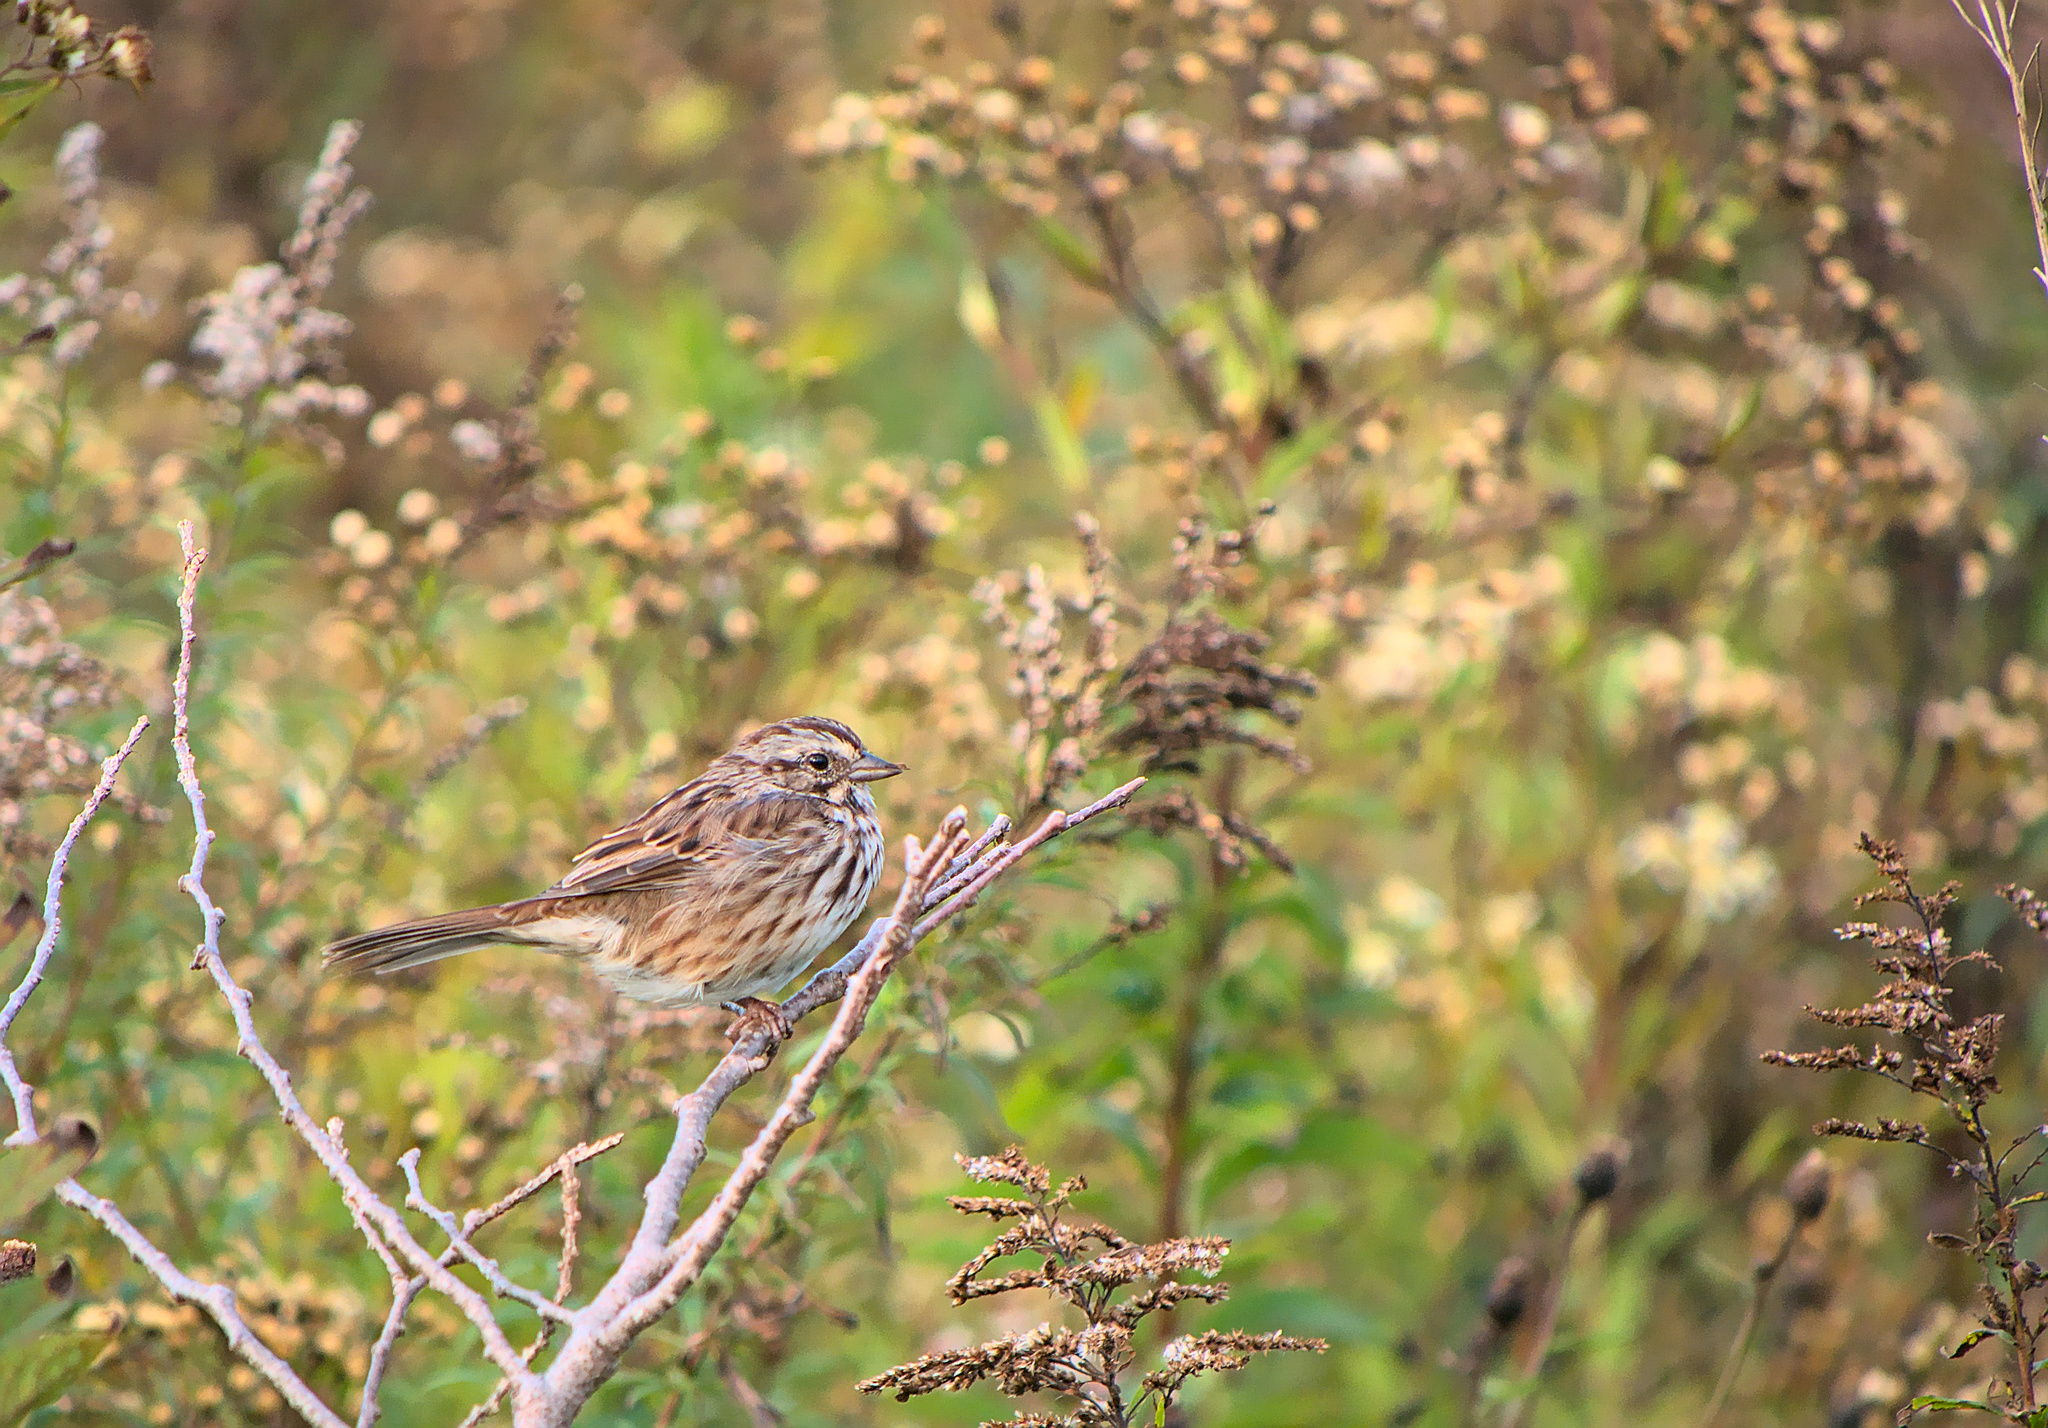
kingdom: Animalia
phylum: Chordata
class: Aves
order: Passeriformes
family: Passerellidae
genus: Melospiza
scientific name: Melospiza melodia
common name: Song sparrow
